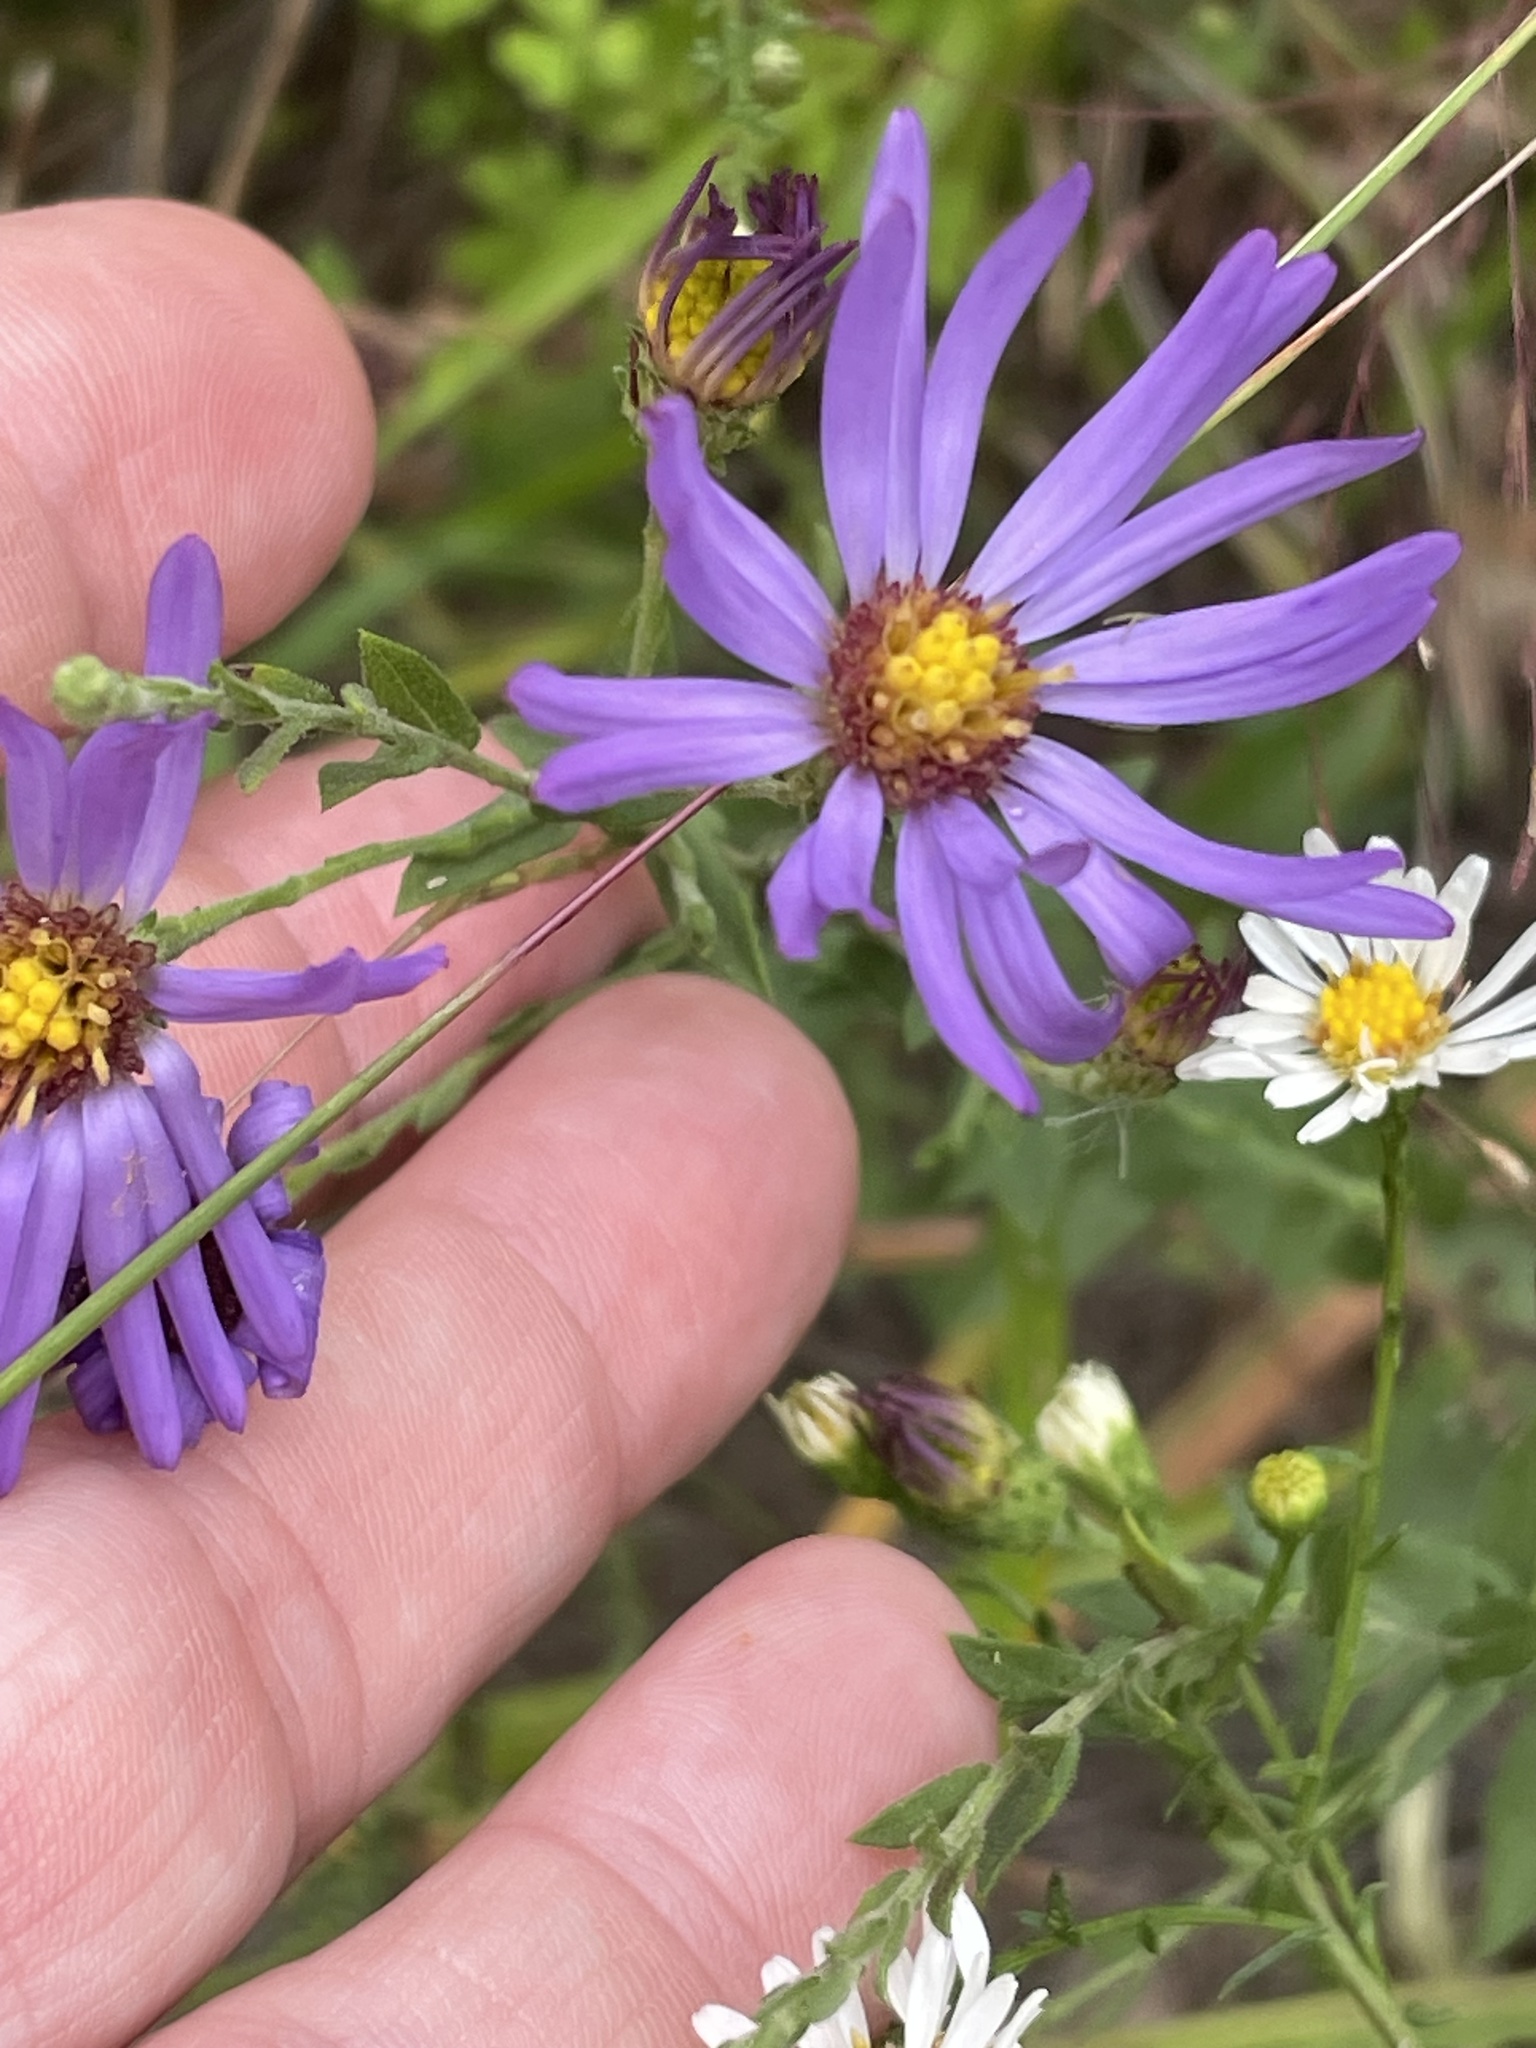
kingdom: Plantae
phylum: Tracheophyta
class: Magnoliopsida
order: Asterales
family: Asteraceae
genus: Symphyotrichum
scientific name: Symphyotrichum patens
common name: Late purple aster
